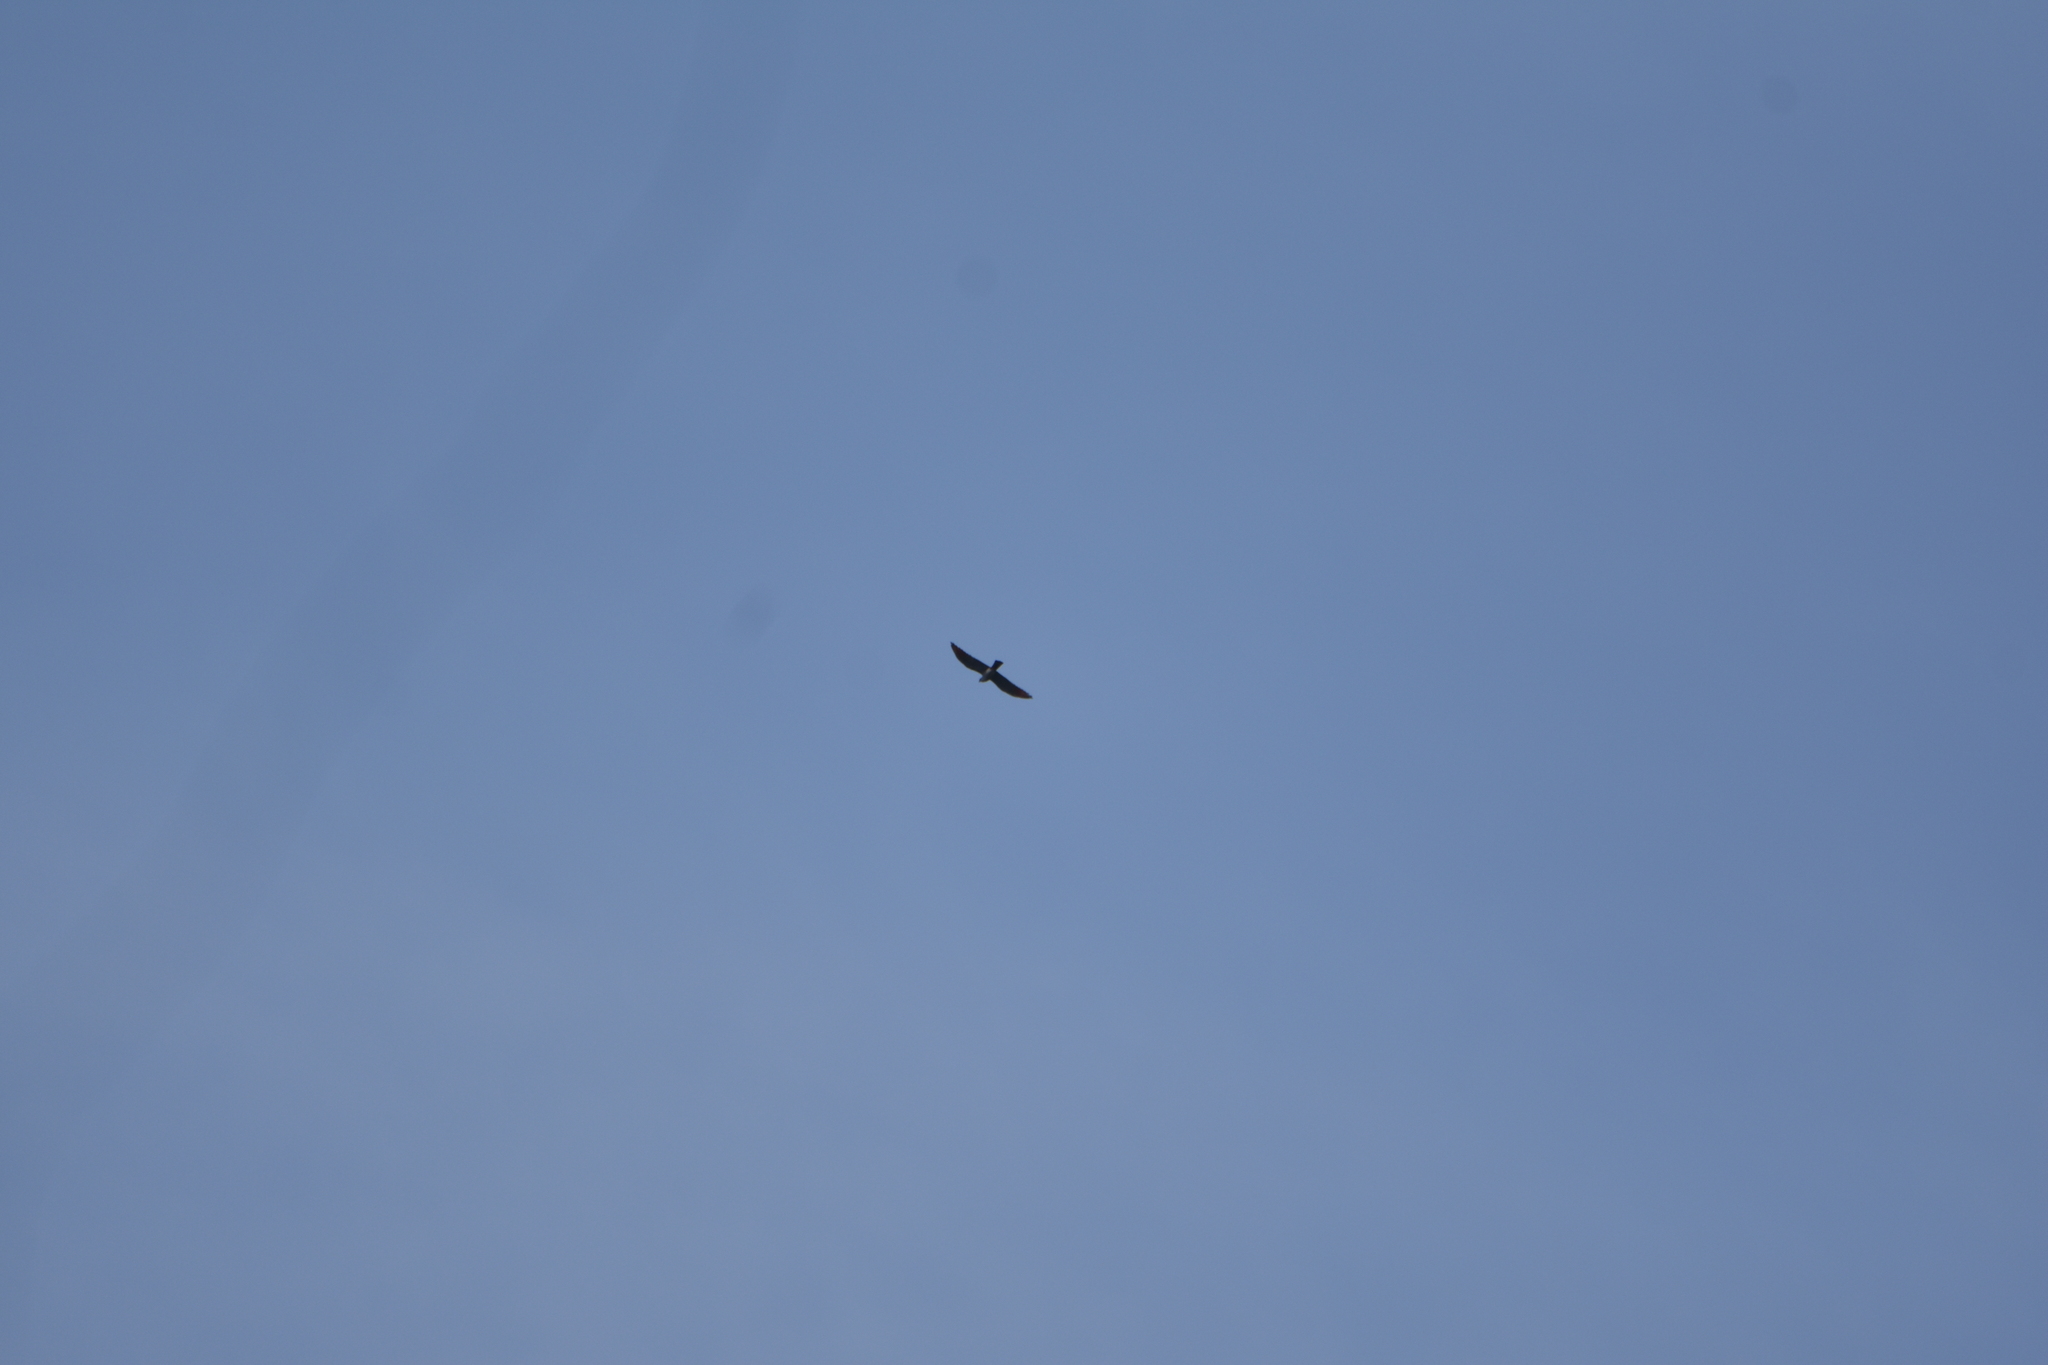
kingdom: Animalia
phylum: Chordata
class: Aves
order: Accipitriformes
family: Accipitridae
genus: Ictinia
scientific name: Ictinia plumbea
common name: Plumbeous kite
